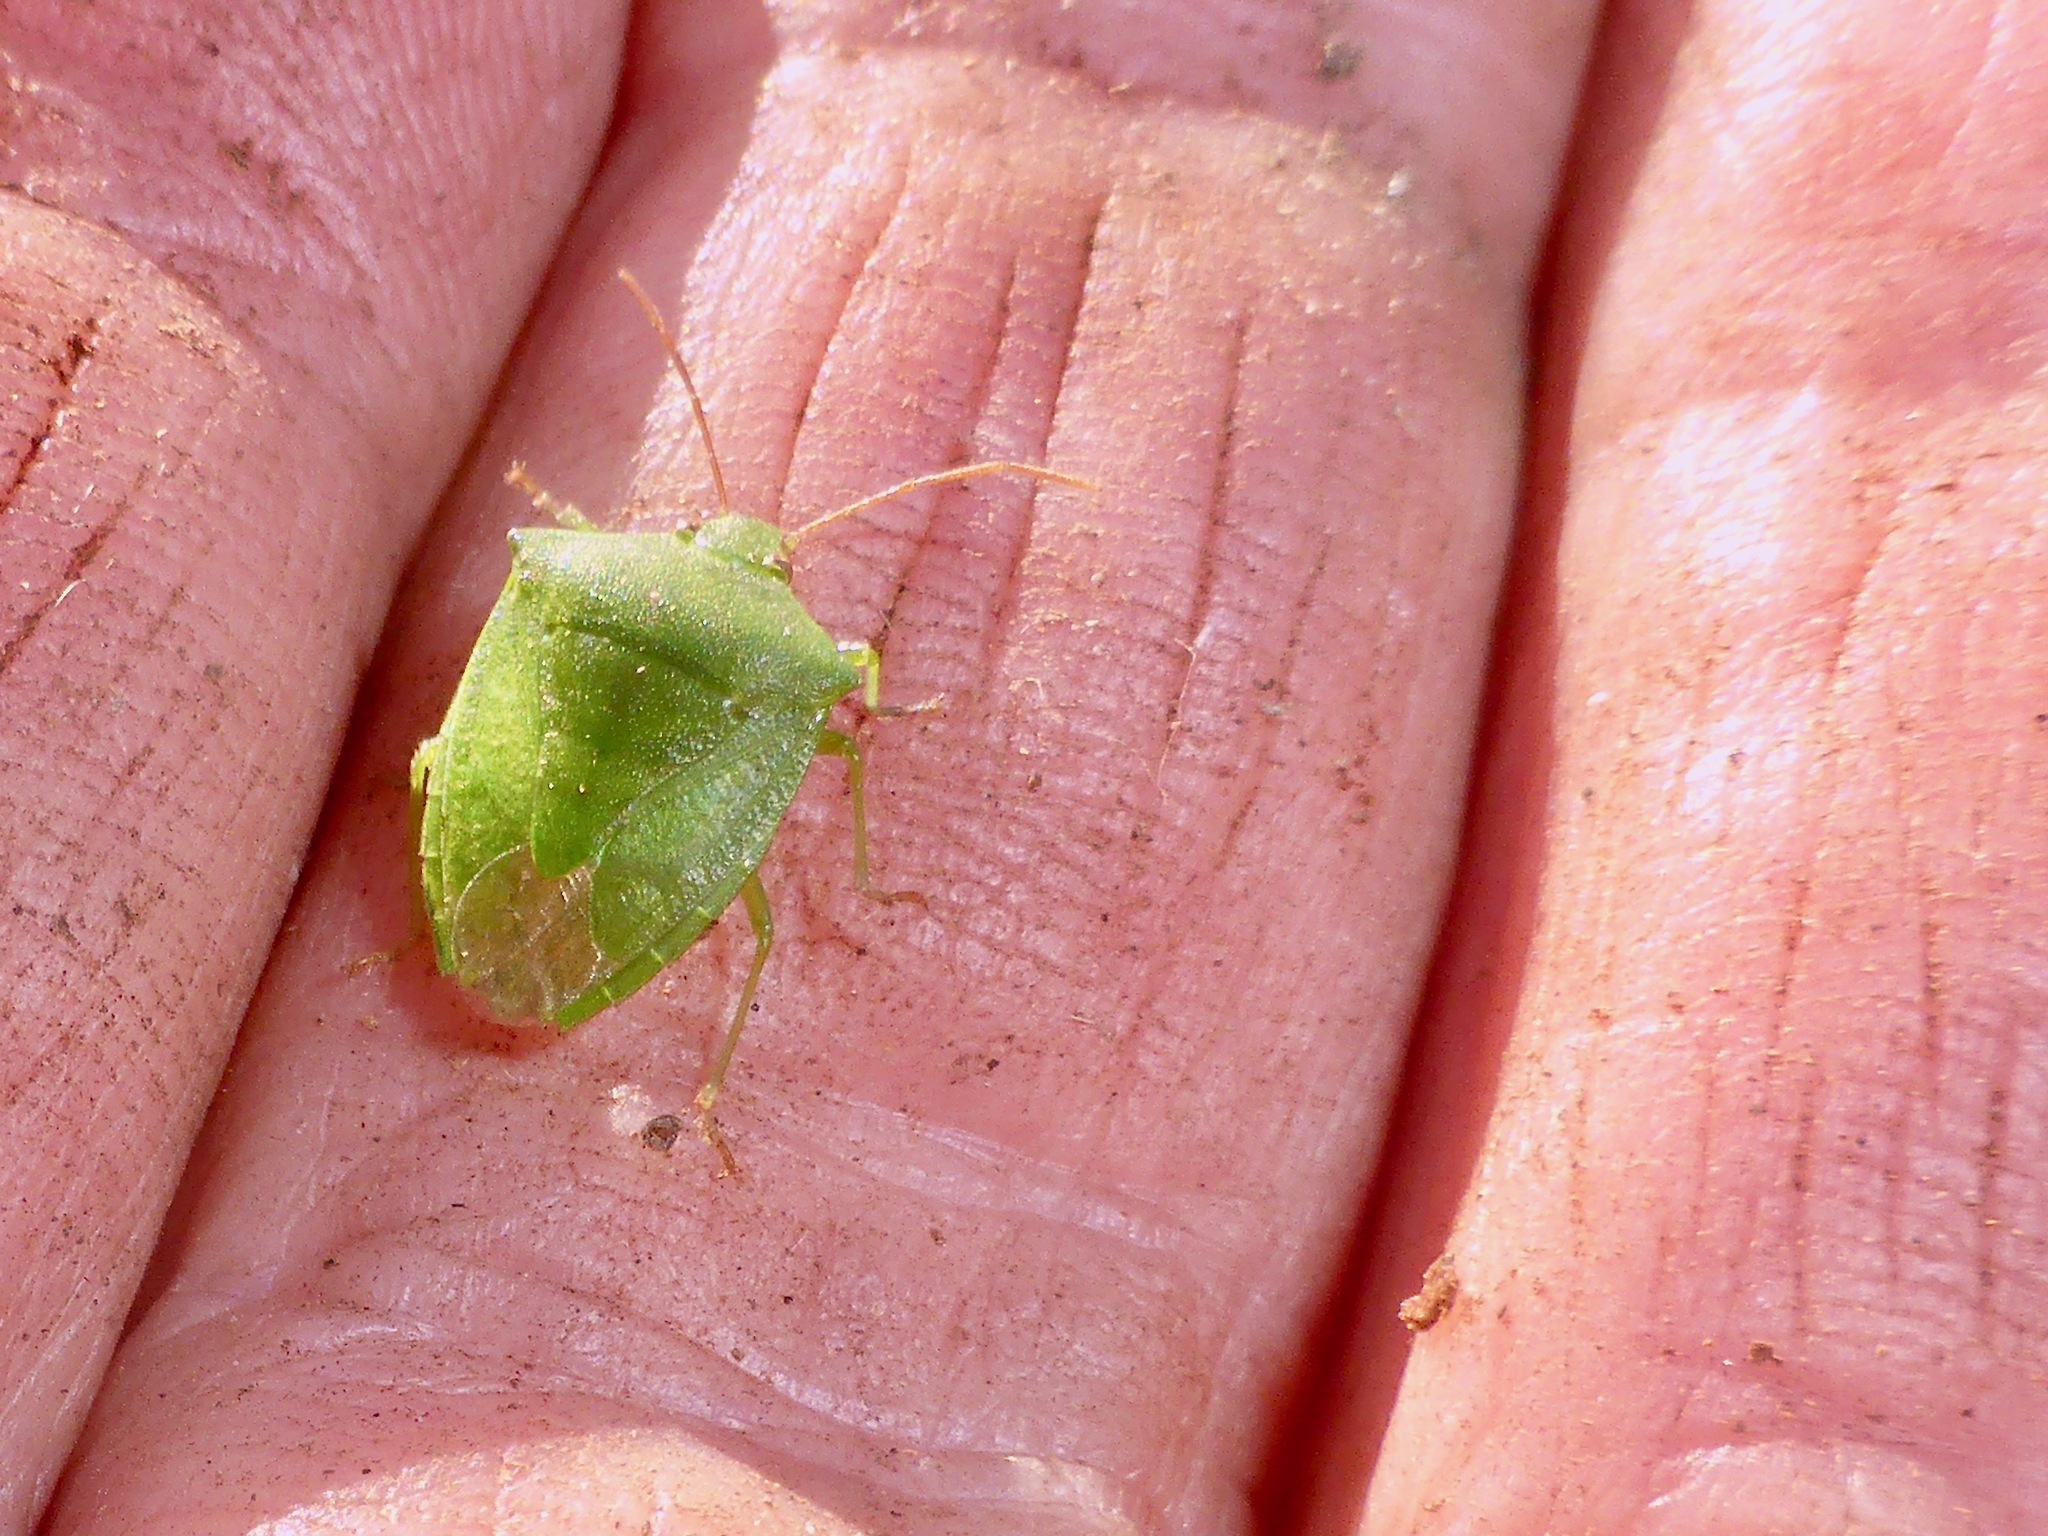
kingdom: Animalia
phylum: Arthropoda
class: Insecta
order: Hemiptera
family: Pentatomidae
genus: Cuspicona
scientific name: Cuspicona simplex
